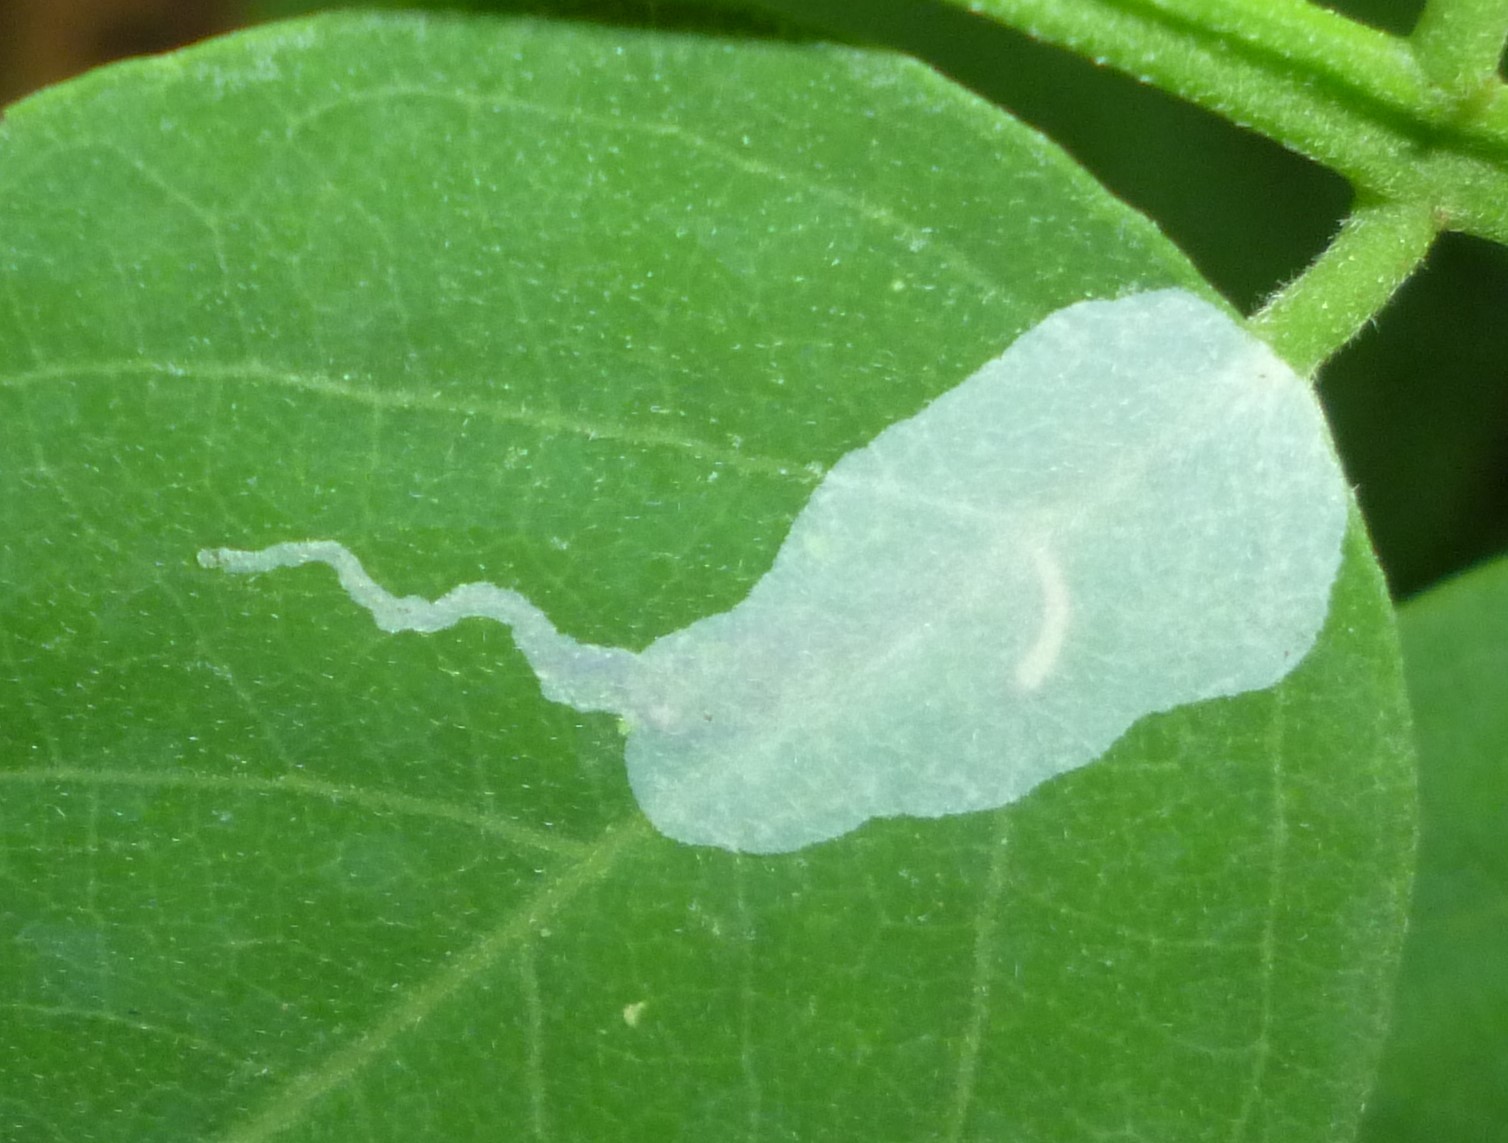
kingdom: Animalia
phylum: Arthropoda
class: Insecta
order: Lepidoptera
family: Gracillariidae
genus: Macrosaccus
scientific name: Macrosaccus robiniella
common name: Leaf blotch miner moth
